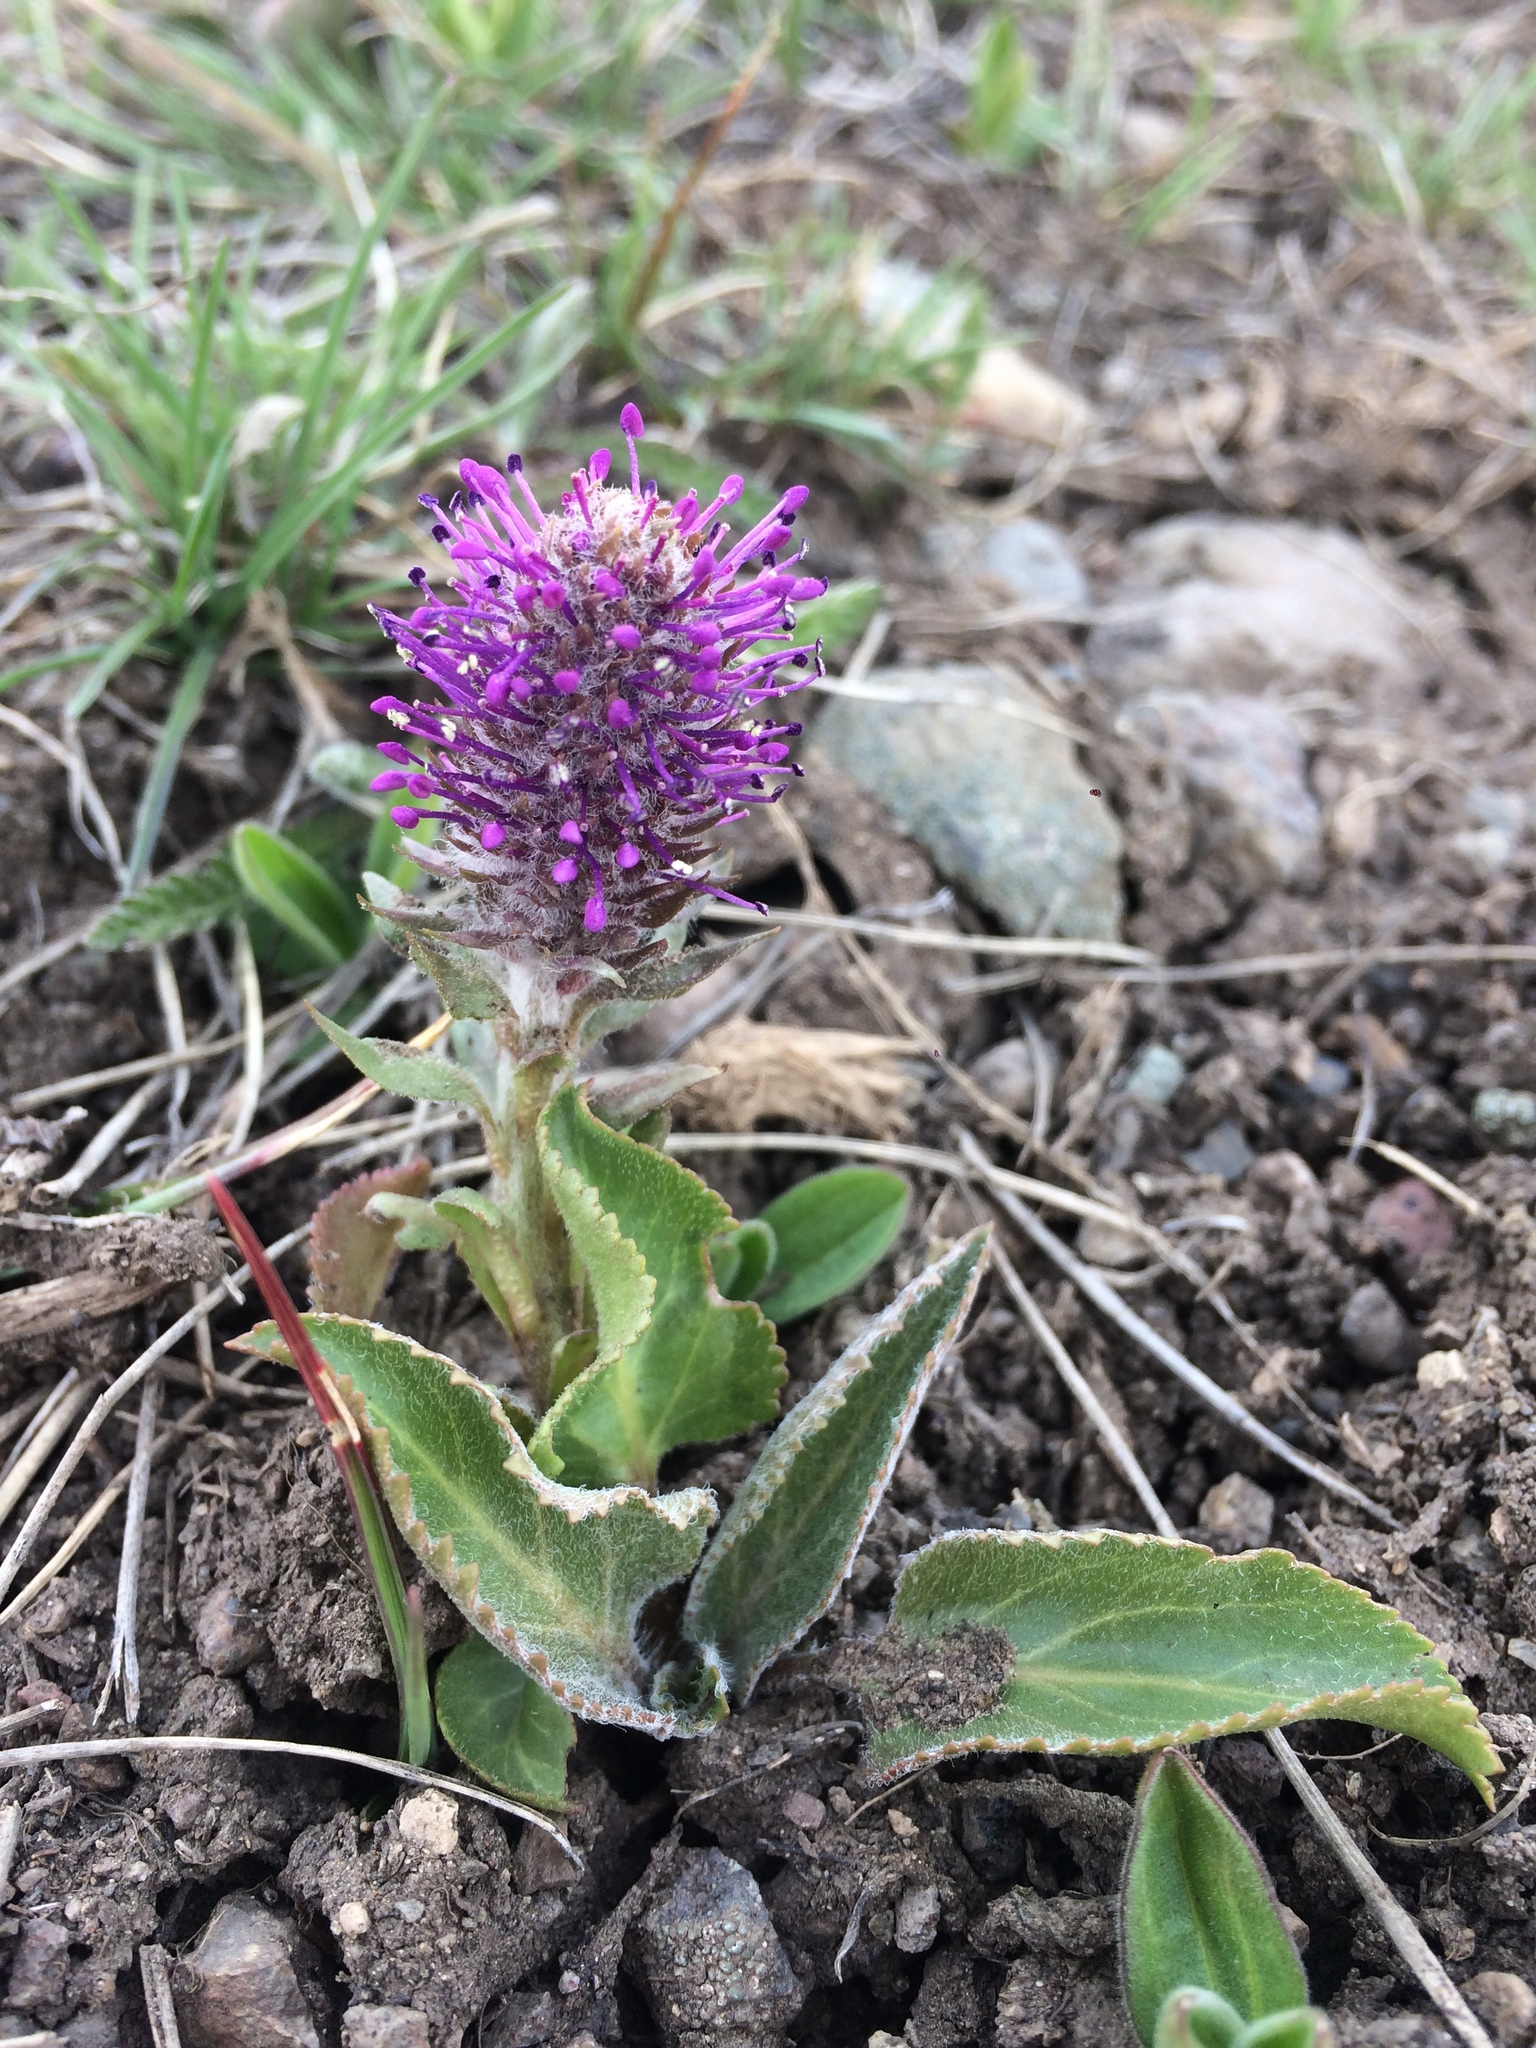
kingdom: Plantae
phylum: Tracheophyta
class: Magnoliopsida
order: Lamiales
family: Plantaginaceae
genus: Synthyris
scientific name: Synthyris wyomingensis
